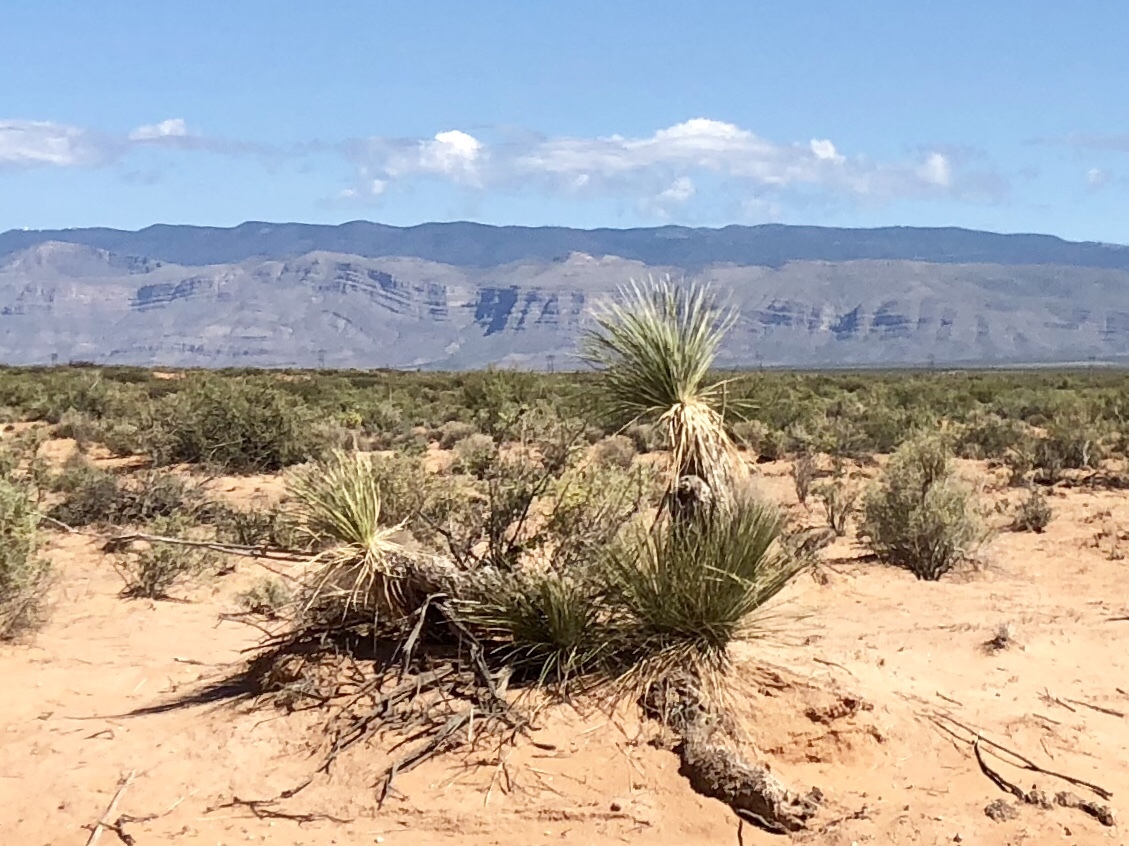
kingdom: Plantae
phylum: Tracheophyta
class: Liliopsida
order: Asparagales
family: Asparagaceae
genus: Yucca
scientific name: Yucca elata
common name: Palmella
